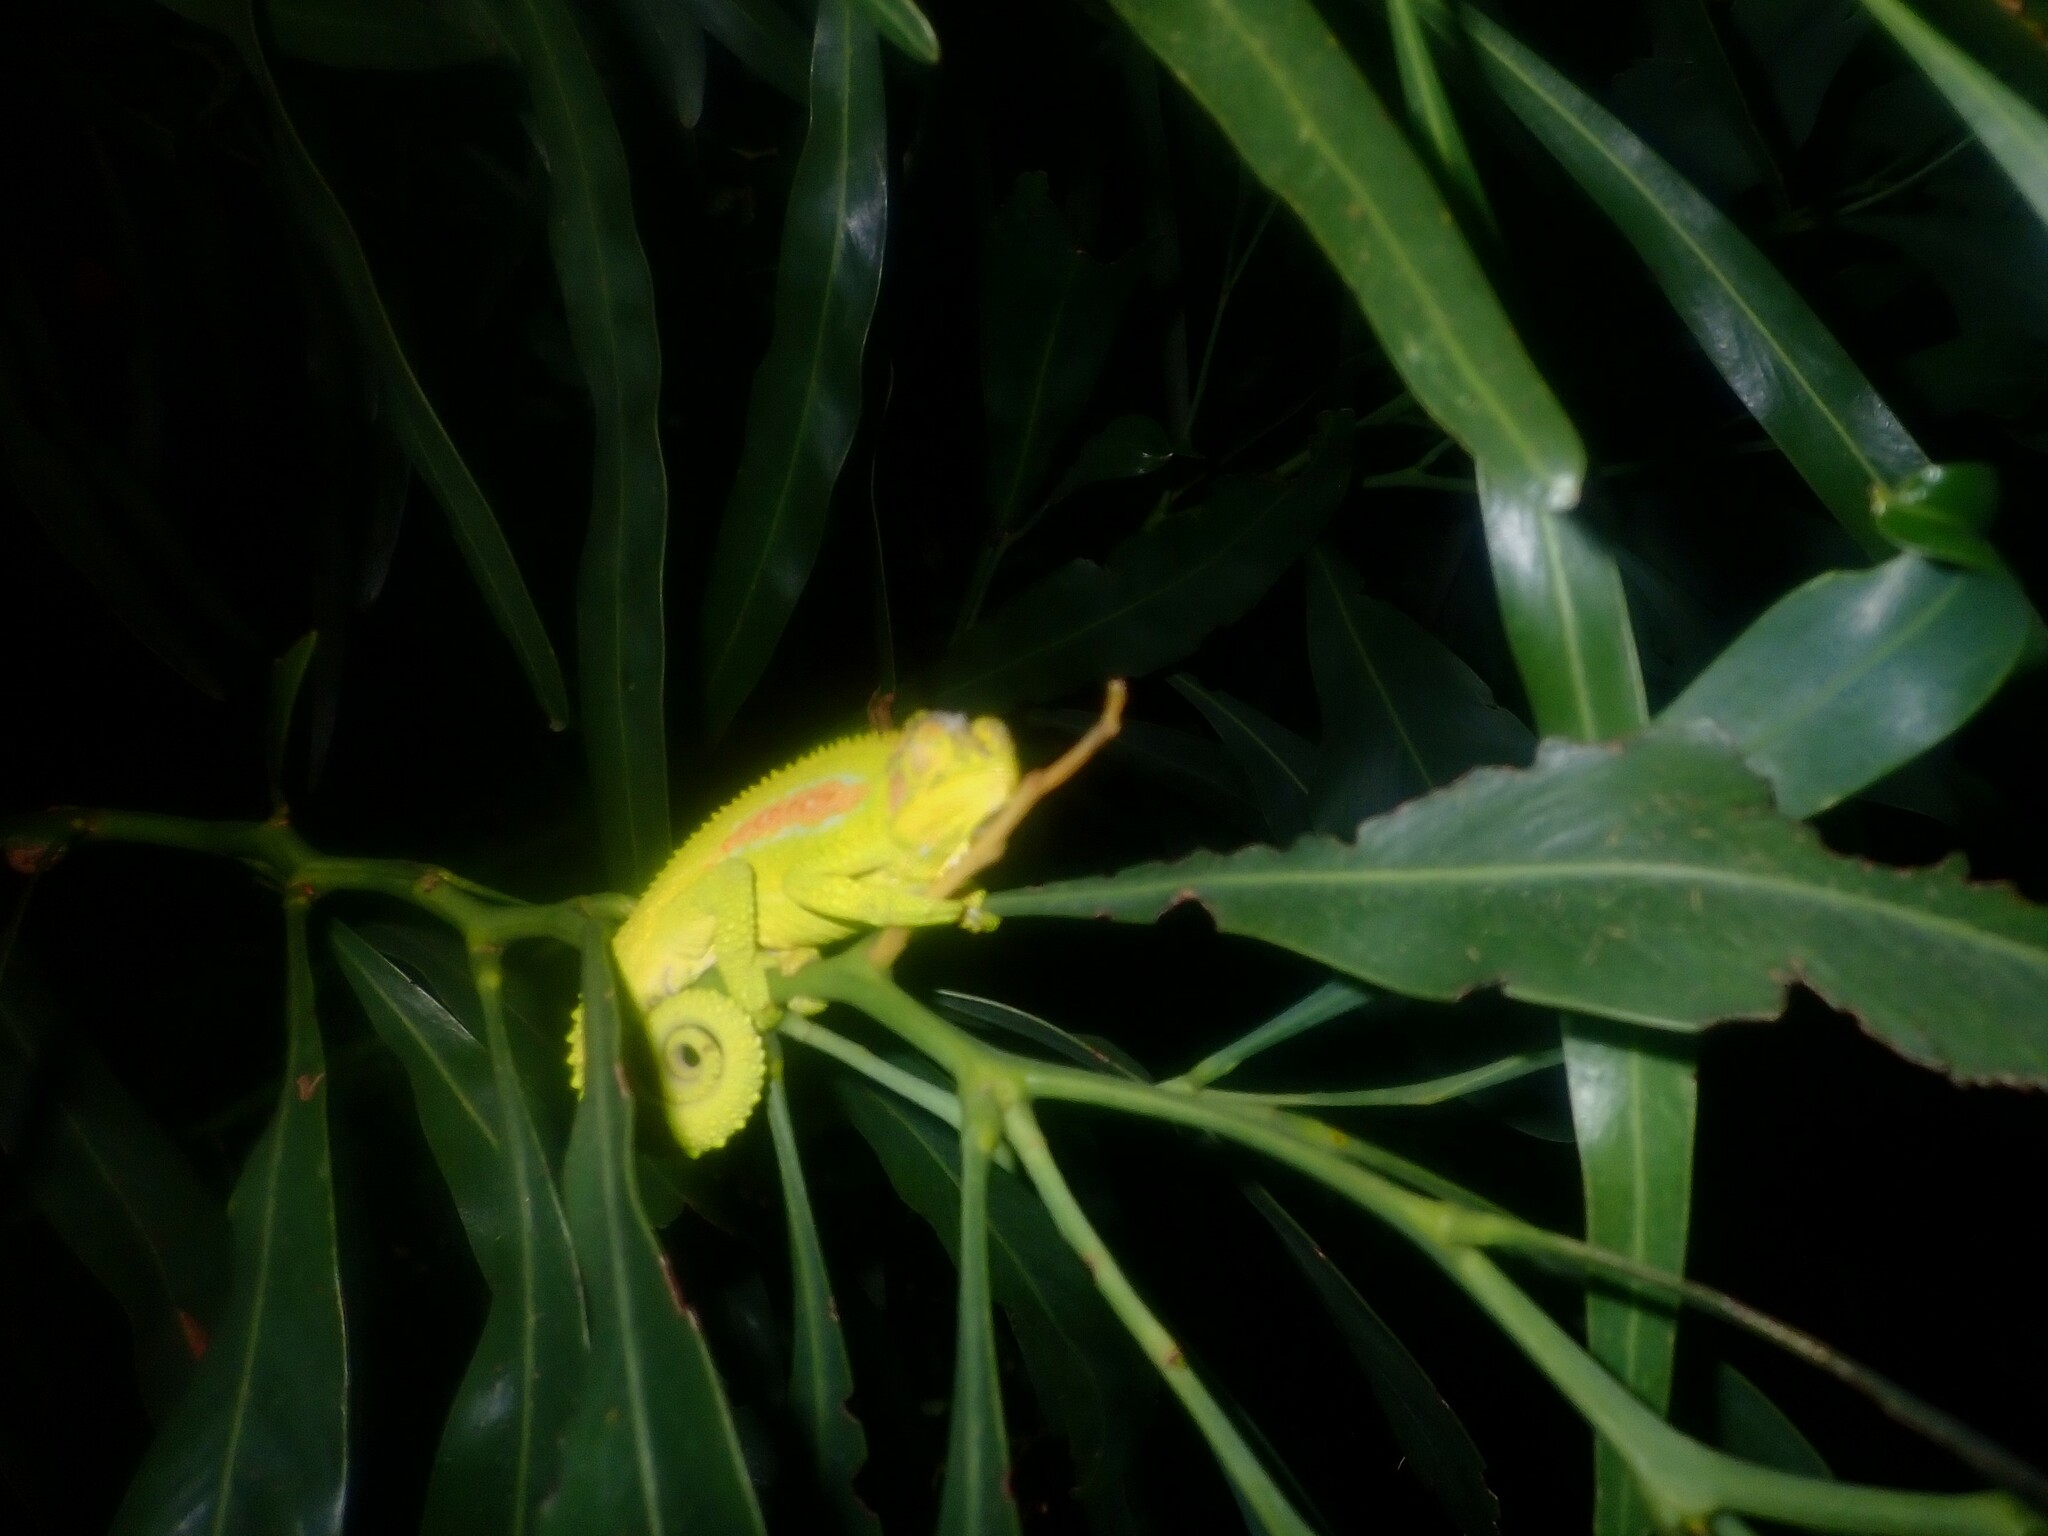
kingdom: Animalia
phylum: Chordata
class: Squamata
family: Chamaeleonidae
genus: Bradypodion
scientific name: Bradypodion pumilum
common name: Cape dwarf chameleon
